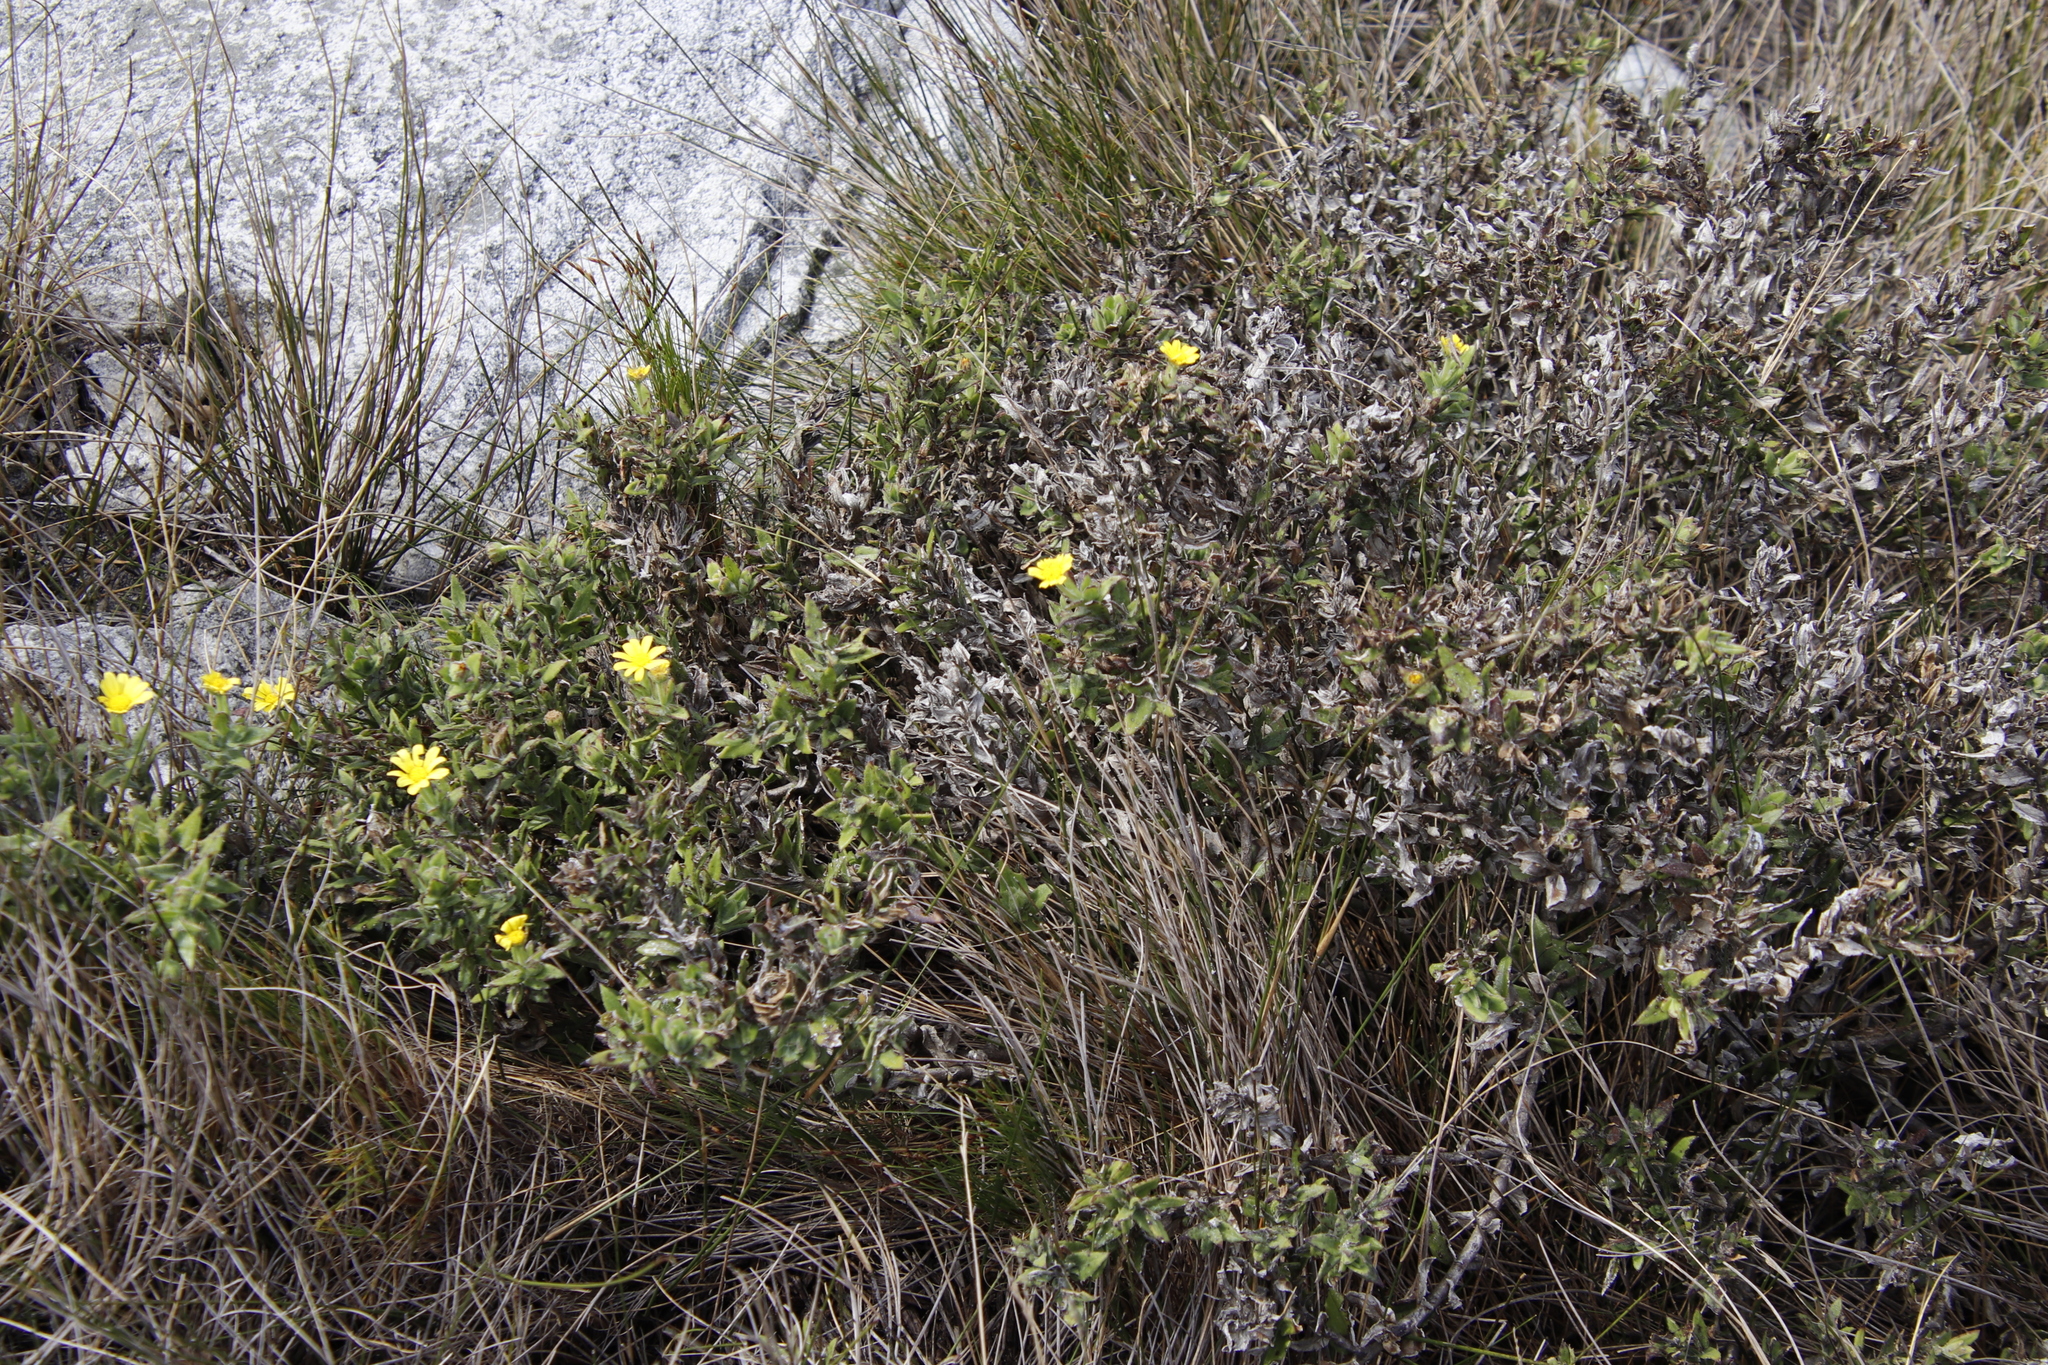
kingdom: Plantae
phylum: Tracheophyta
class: Magnoliopsida
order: Asterales
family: Asteraceae
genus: Osteospermum
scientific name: Osteospermum ilicifolium
